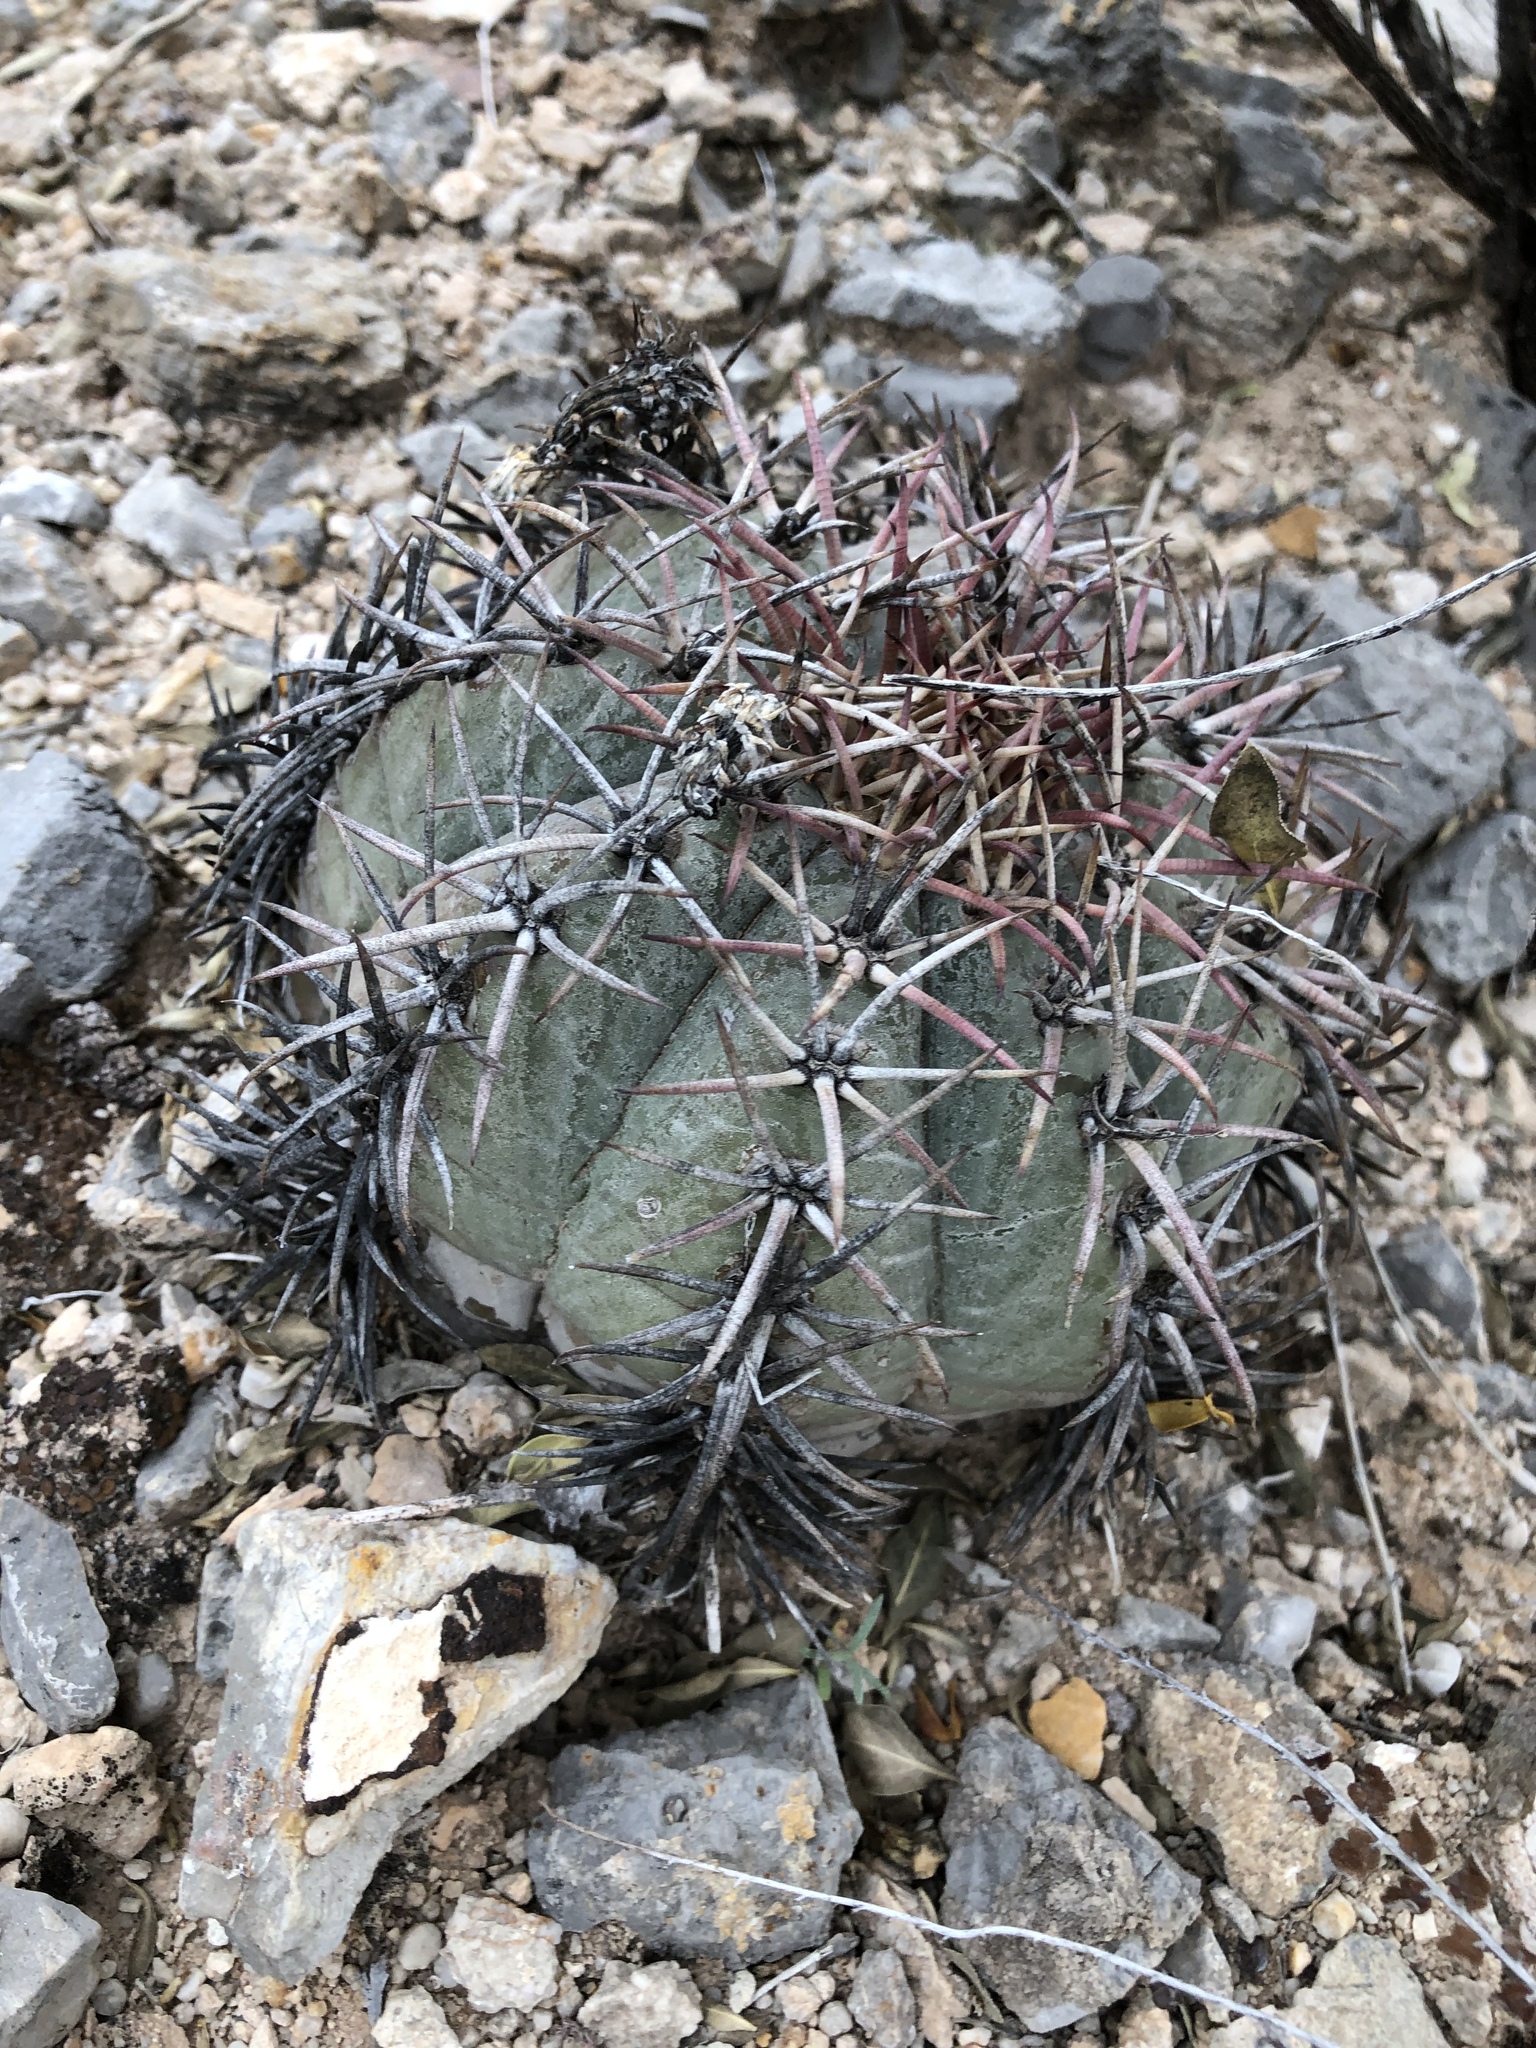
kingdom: Plantae
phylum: Tracheophyta
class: Magnoliopsida
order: Caryophyllales
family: Cactaceae
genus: Echinocactus
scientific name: Echinocactus horizonthalonius
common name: Devilshead
